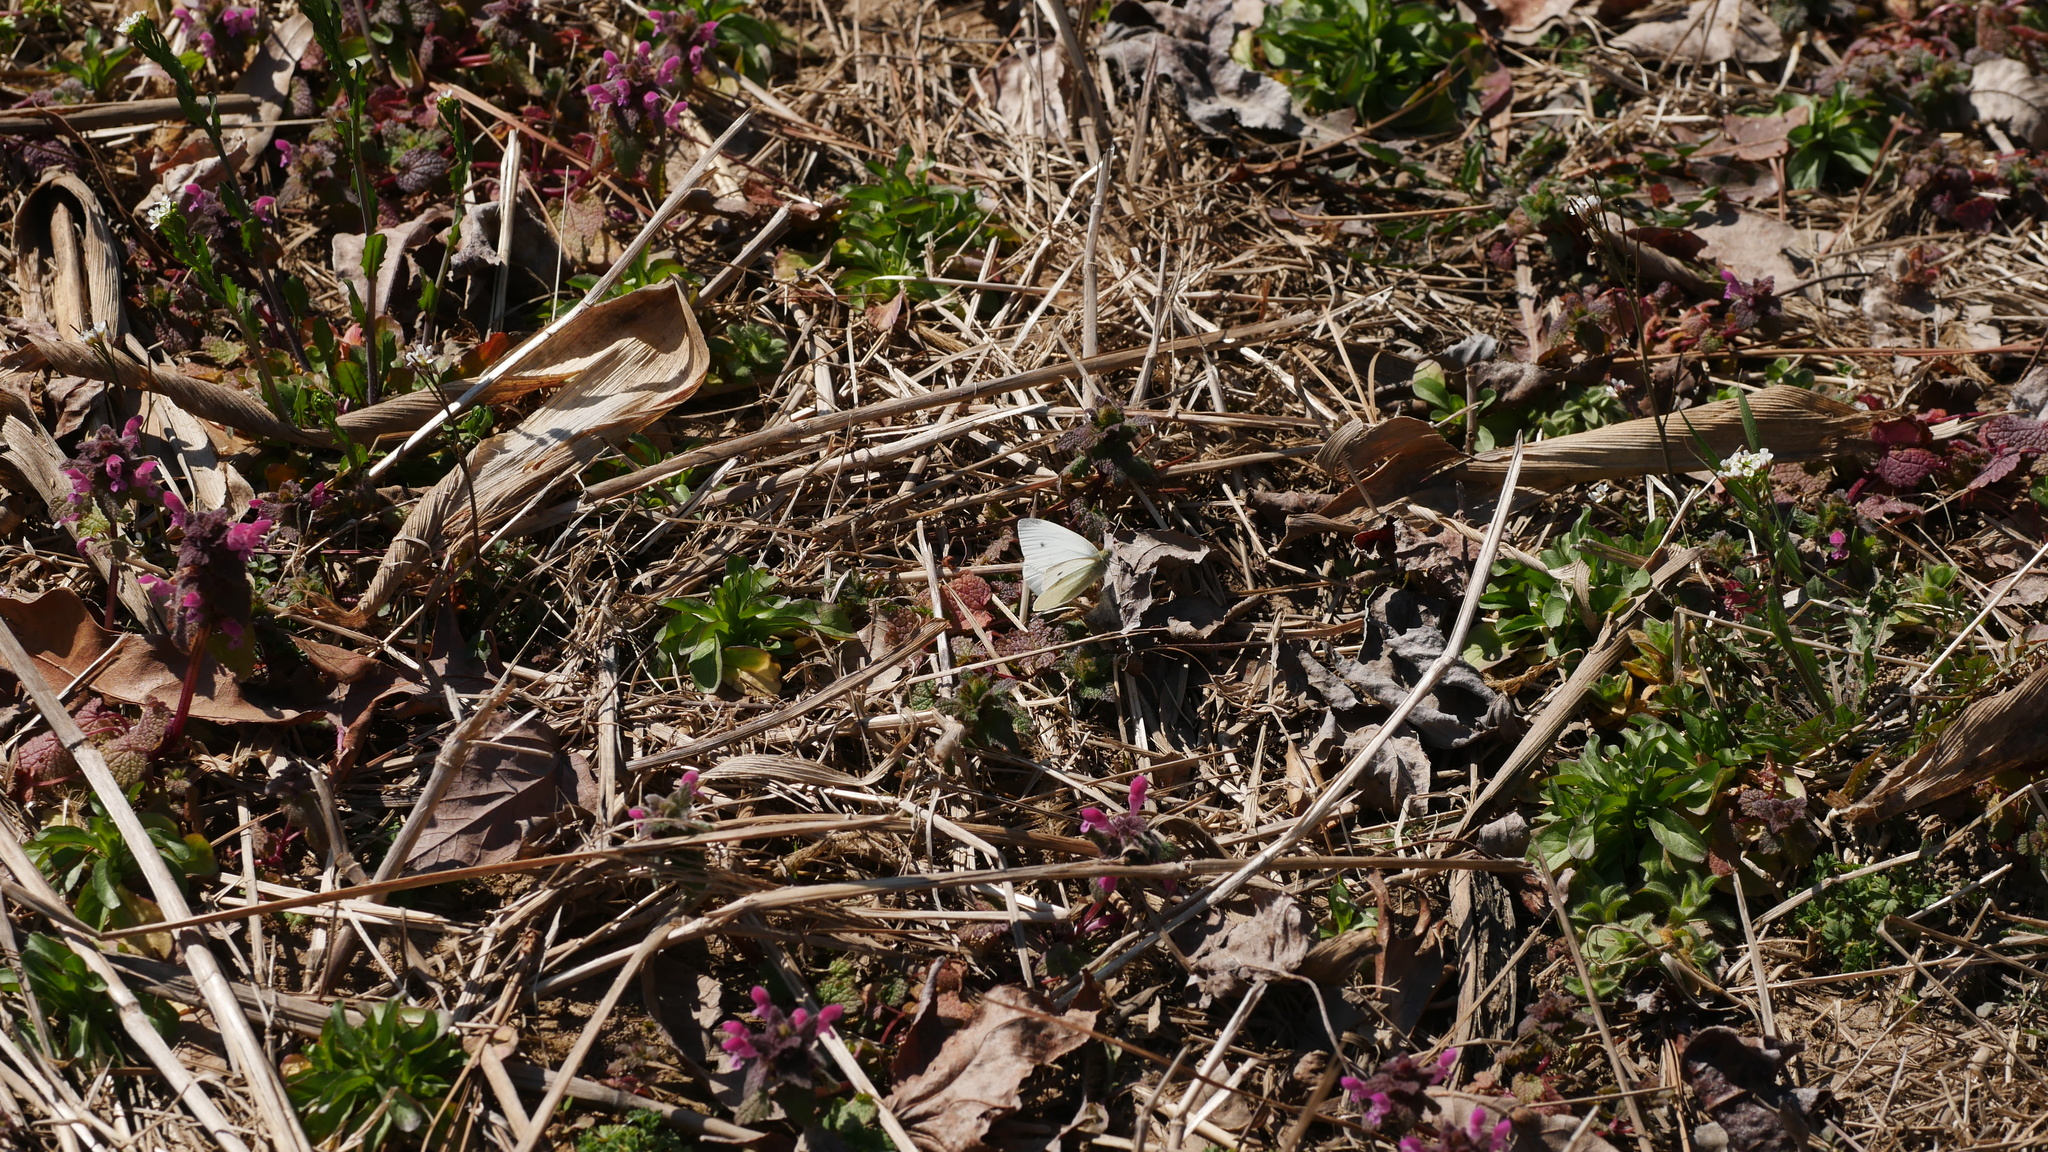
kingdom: Animalia
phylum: Arthropoda
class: Insecta
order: Lepidoptera
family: Pieridae
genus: Pieris
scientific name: Pieris rapae
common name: Small white
